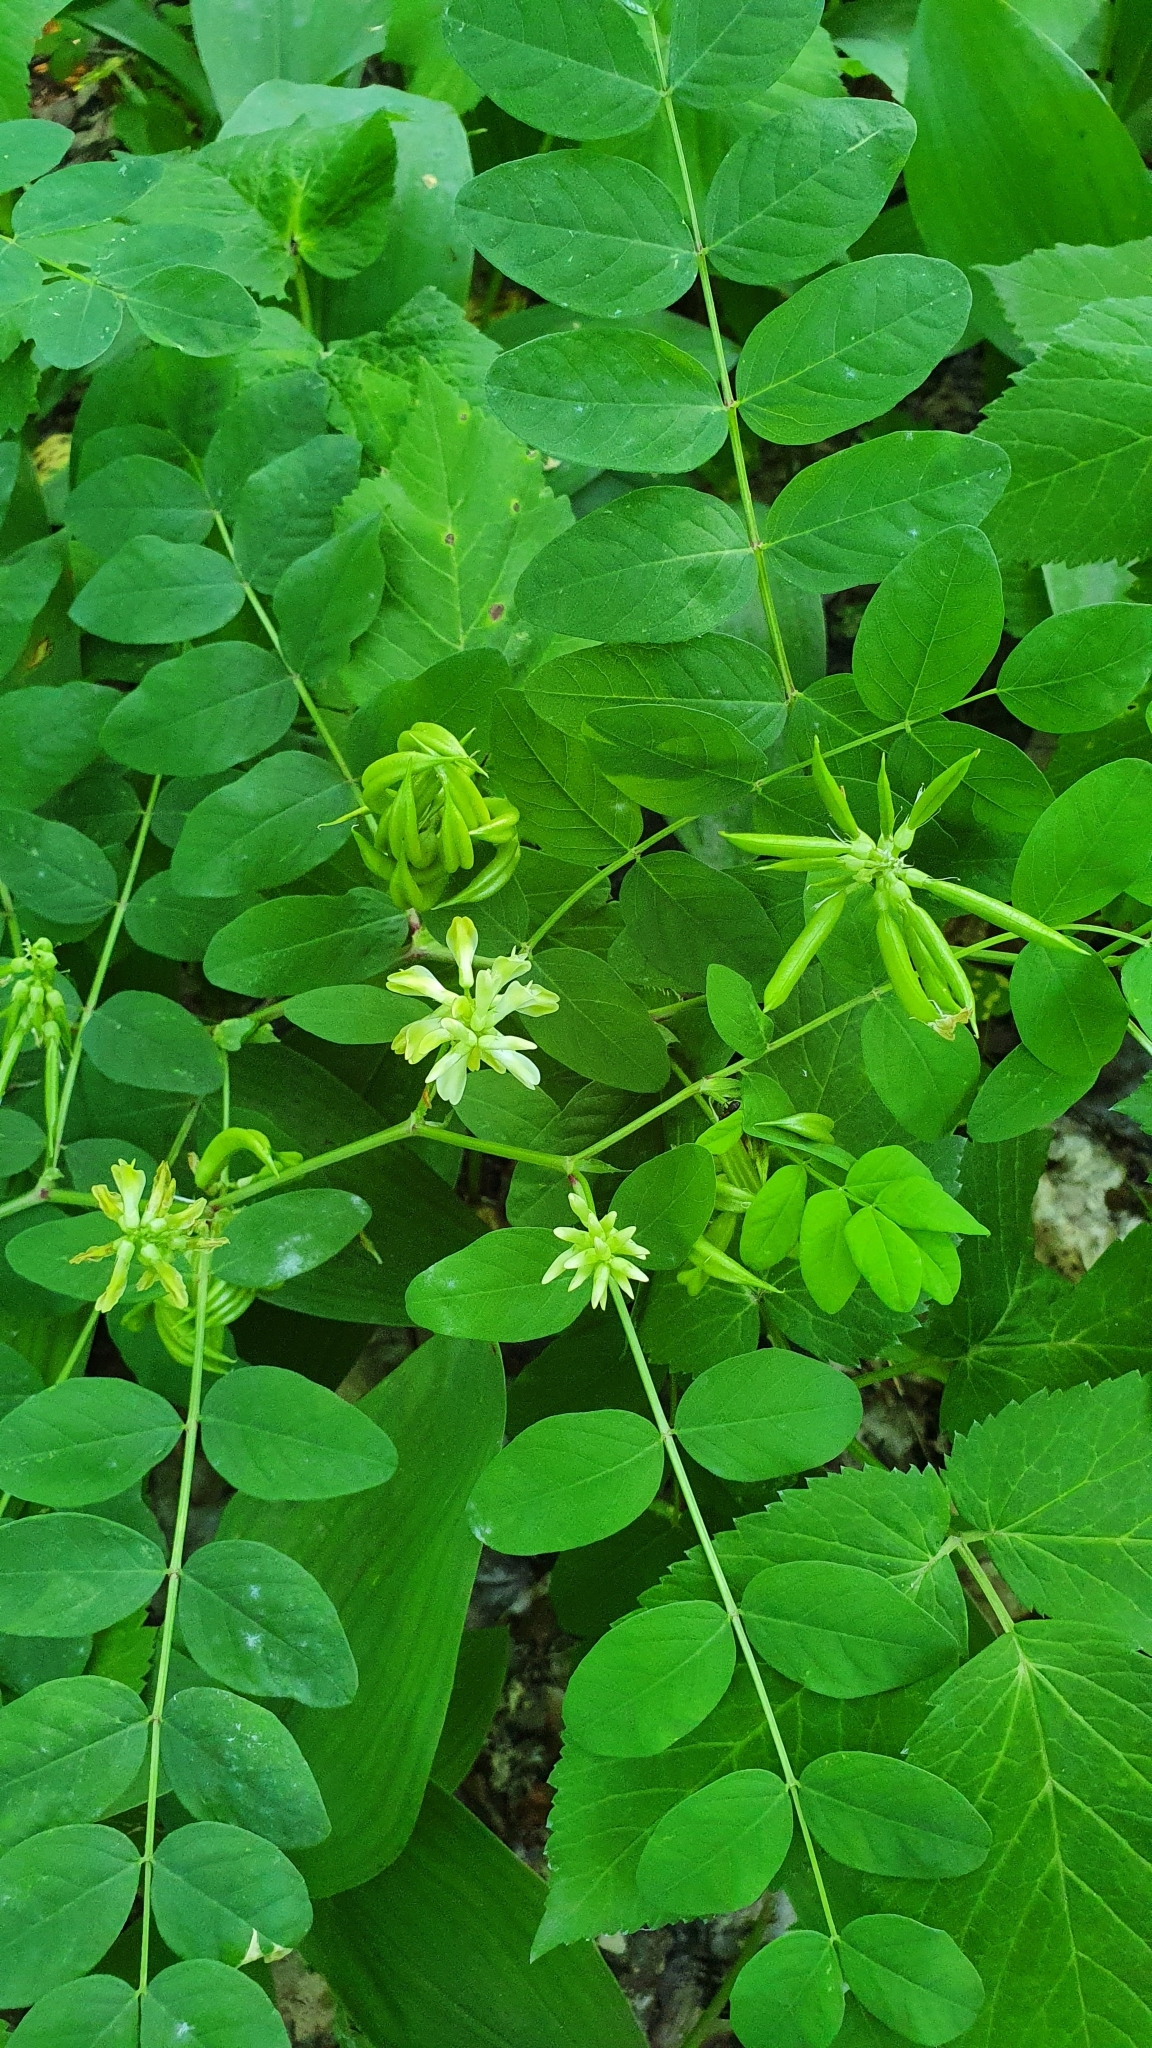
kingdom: Plantae
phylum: Tracheophyta
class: Magnoliopsida
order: Fabales
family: Fabaceae
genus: Astragalus
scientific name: Astragalus glycyphyllos
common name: Wild liquorice
